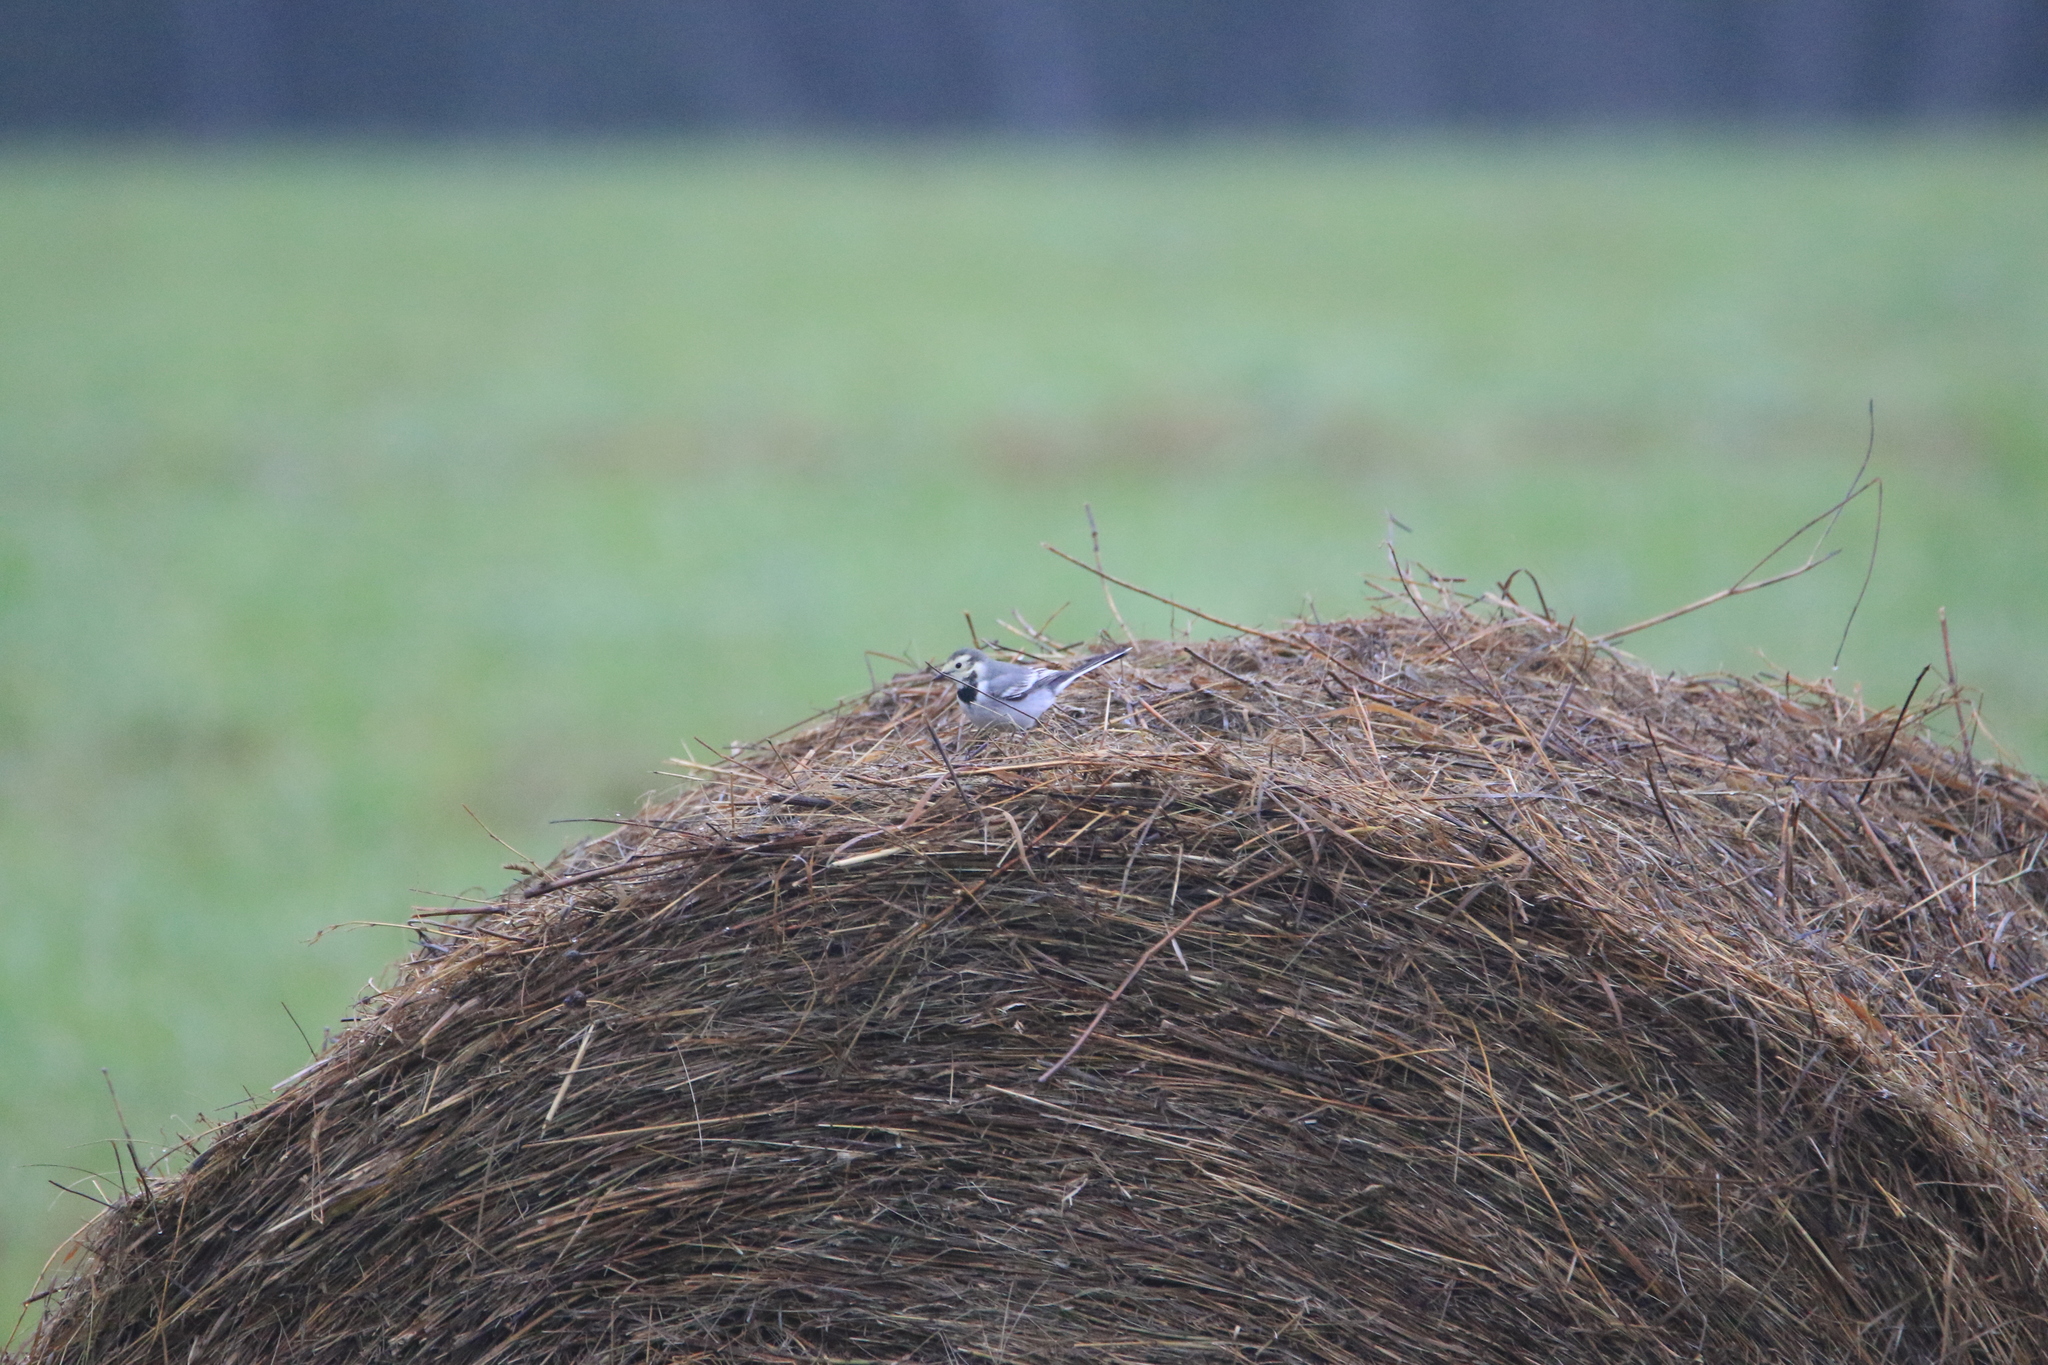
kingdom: Animalia
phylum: Chordata
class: Aves
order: Passeriformes
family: Motacillidae
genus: Motacilla
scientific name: Motacilla alba
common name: White wagtail
